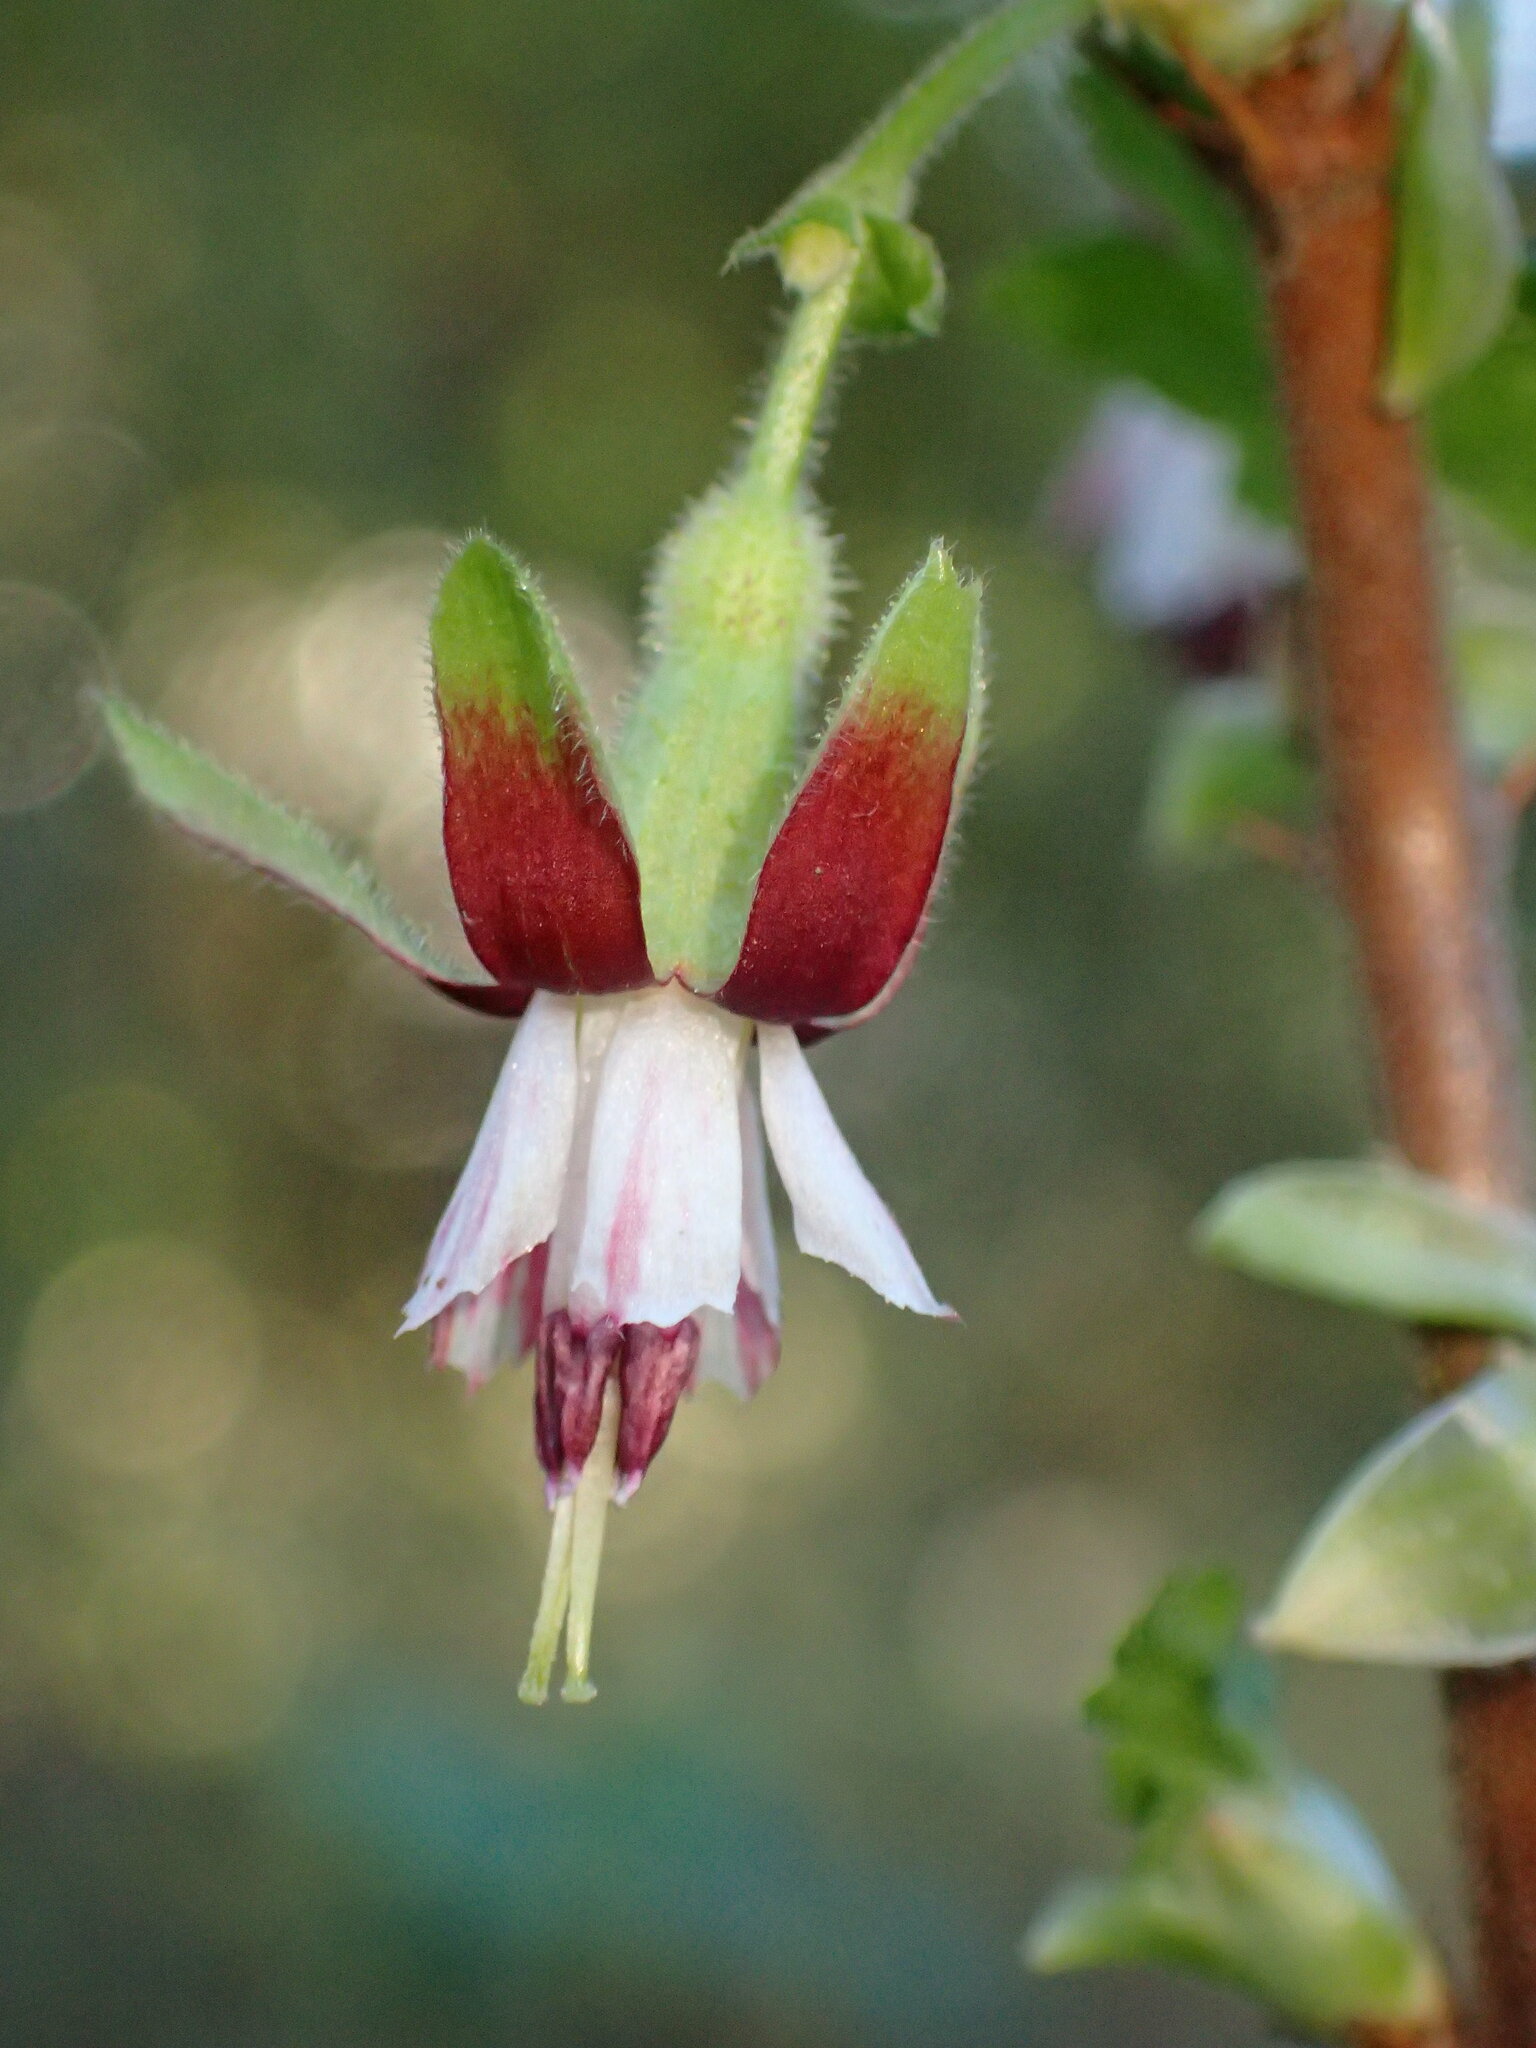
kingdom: Plantae
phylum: Tracheophyta
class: Magnoliopsida
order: Saxifragales
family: Grossulariaceae
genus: Ribes
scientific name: Ribes amarum
